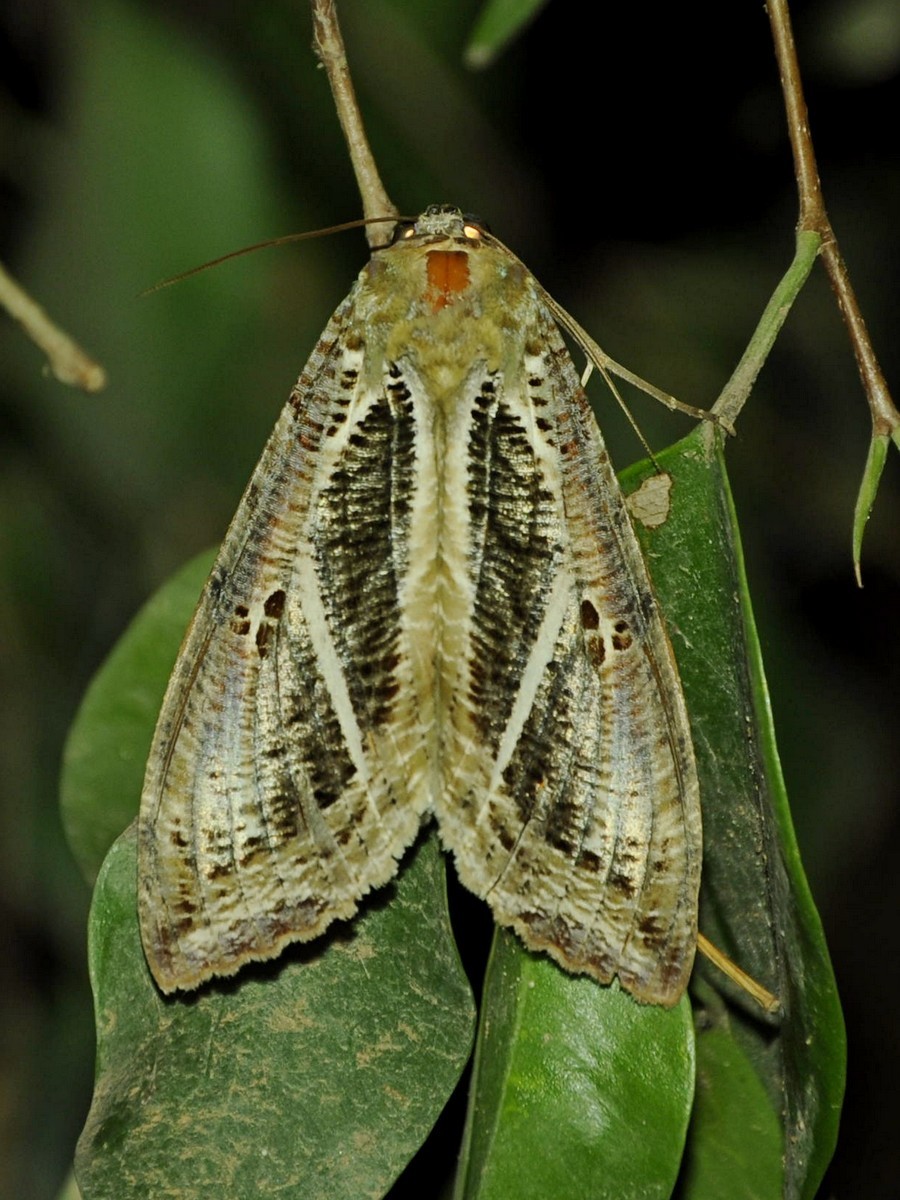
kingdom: Animalia
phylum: Arthropoda
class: Insecta
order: Lepidoptera
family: Erebidae
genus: Eudocima
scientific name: Eudocima materna
